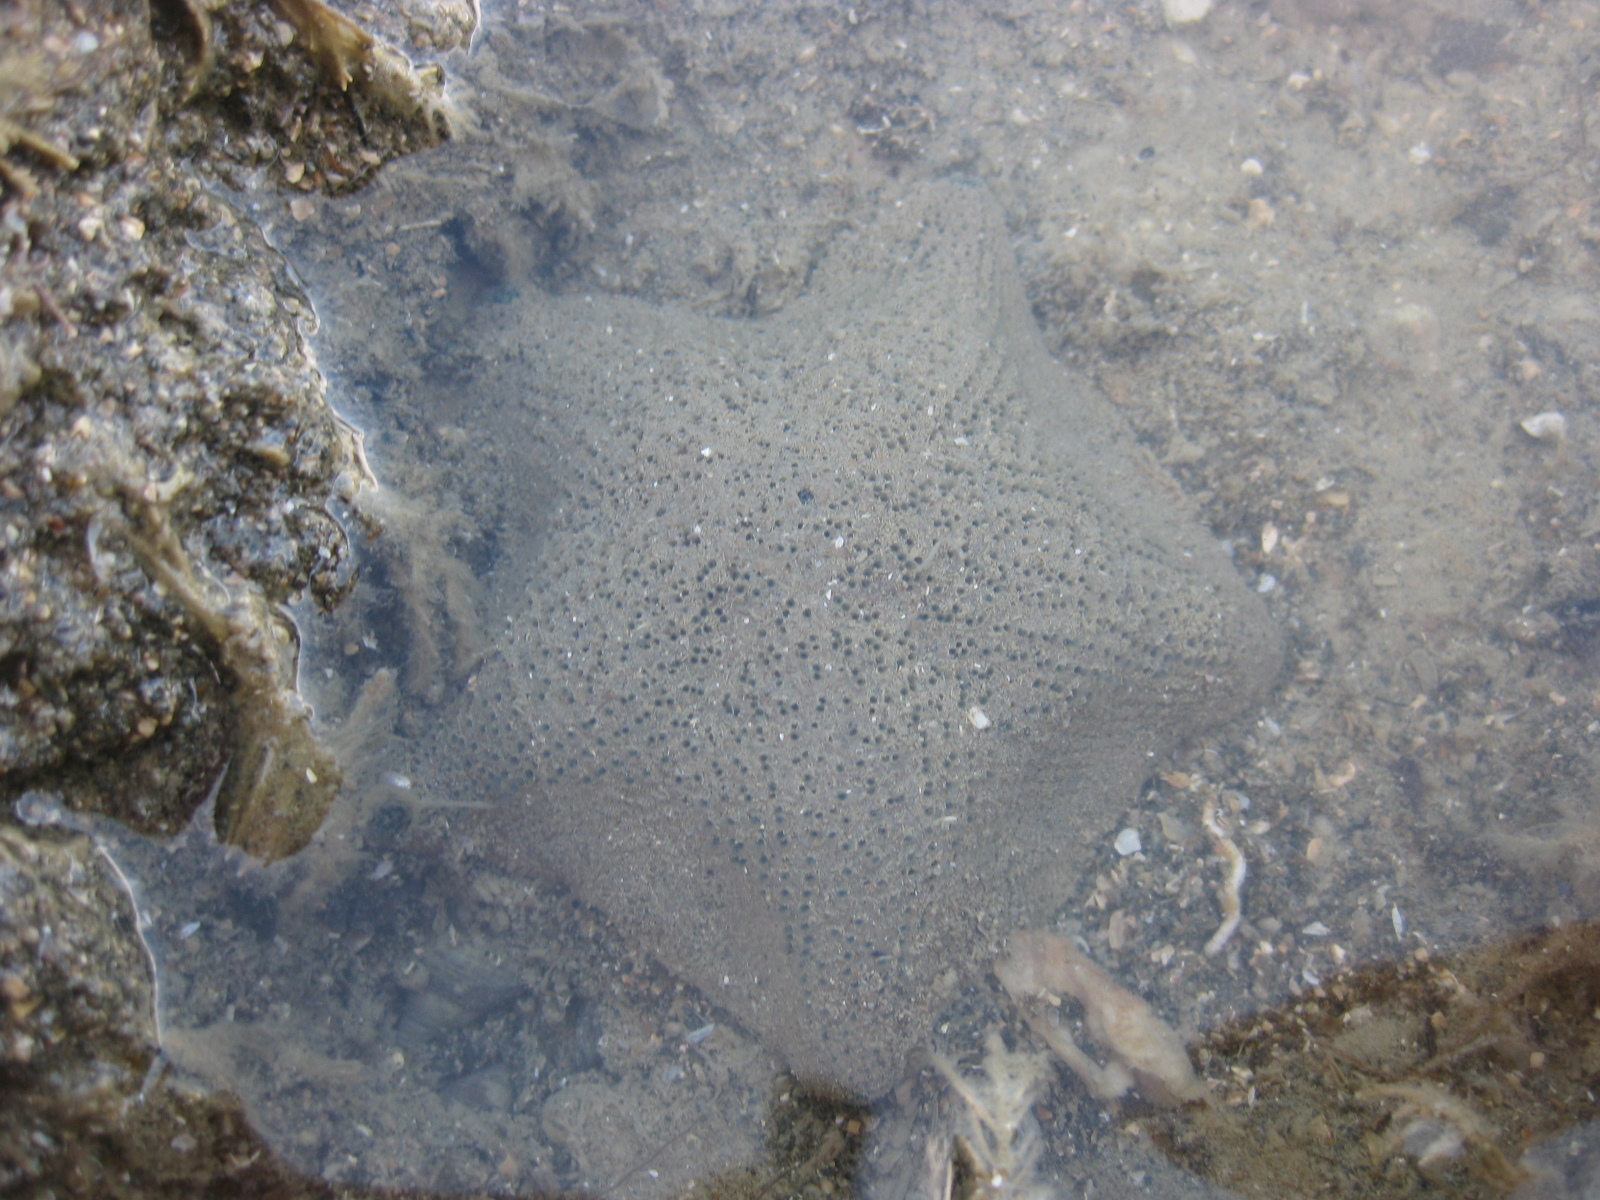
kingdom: Animalia
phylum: Echinodermata
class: Asteroidea
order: Valvatida
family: Asterinidae
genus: Patiriella
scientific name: Patiriella regularis
